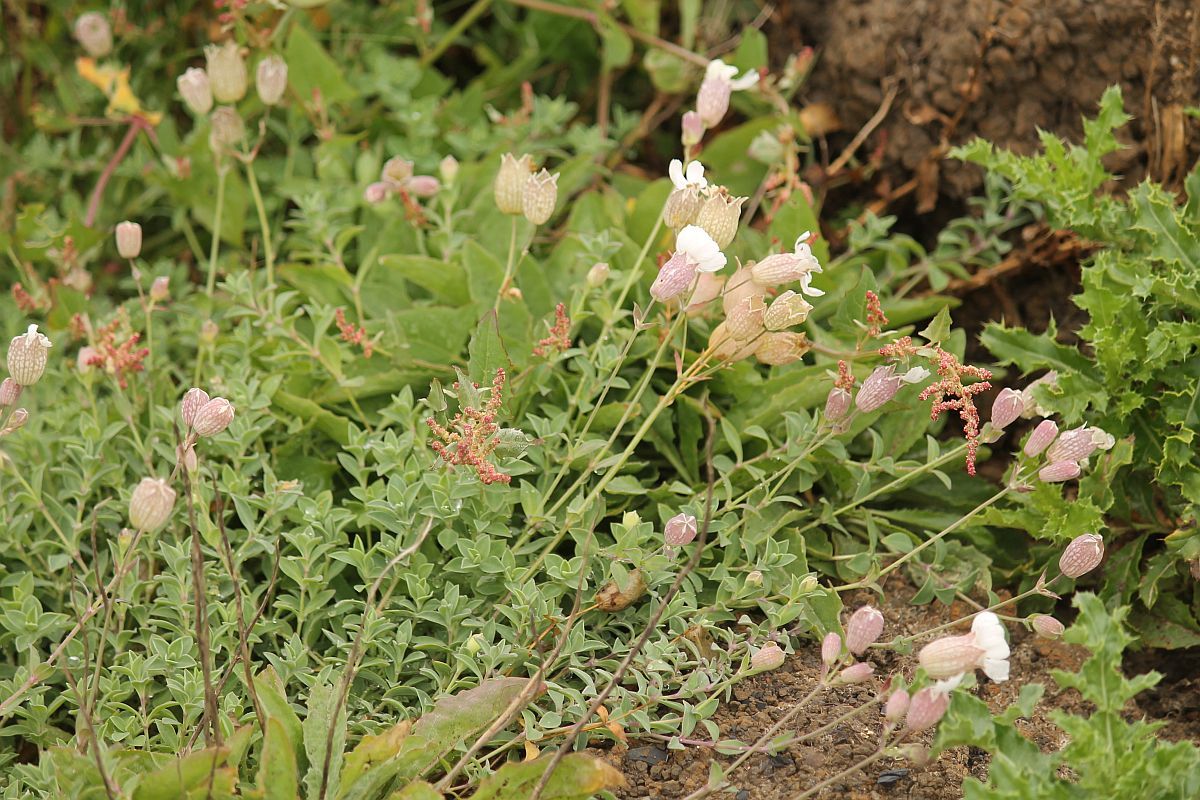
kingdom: Plantae
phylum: Tracheophyta
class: Magnoliopsida
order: Caryophyllales
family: Caryophyllaceae
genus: Silene
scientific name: Silene uniflora
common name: Sea campion
